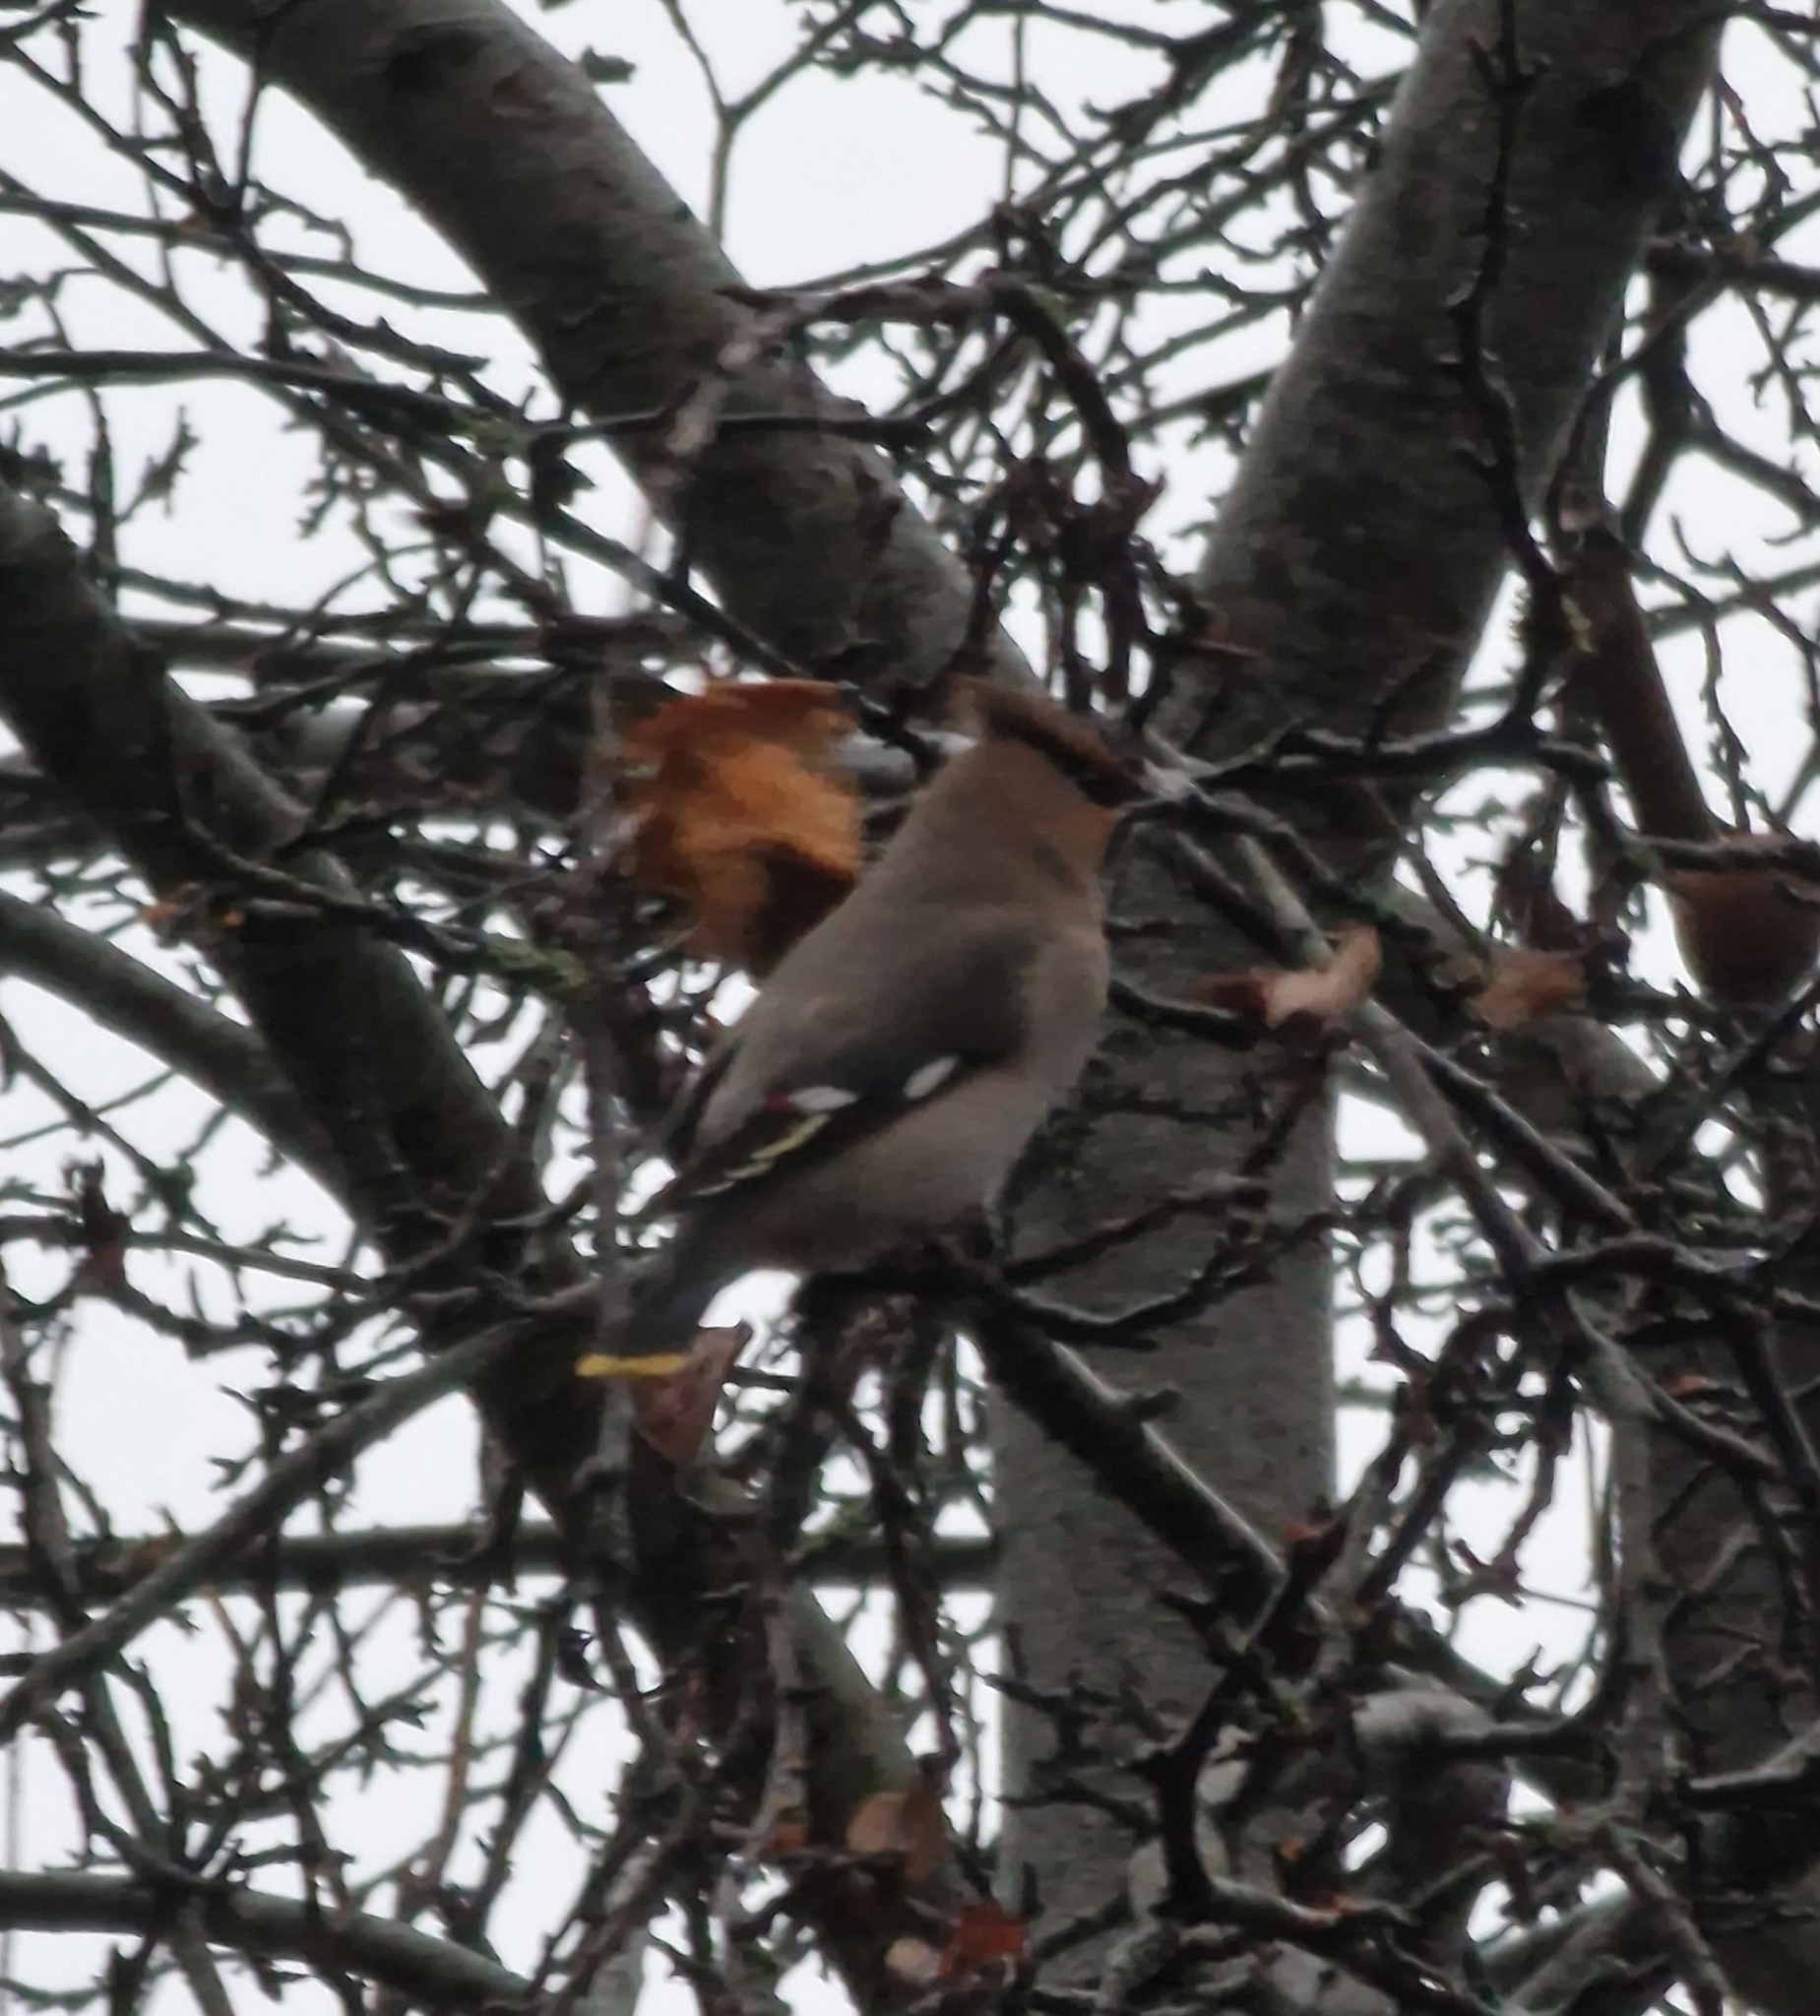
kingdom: Animalia
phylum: Chordata
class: Aves
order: Passeriformes
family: Bombycillidae
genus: Bombycilla
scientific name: Bombycilla garrulus
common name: Bohemian waxwing
